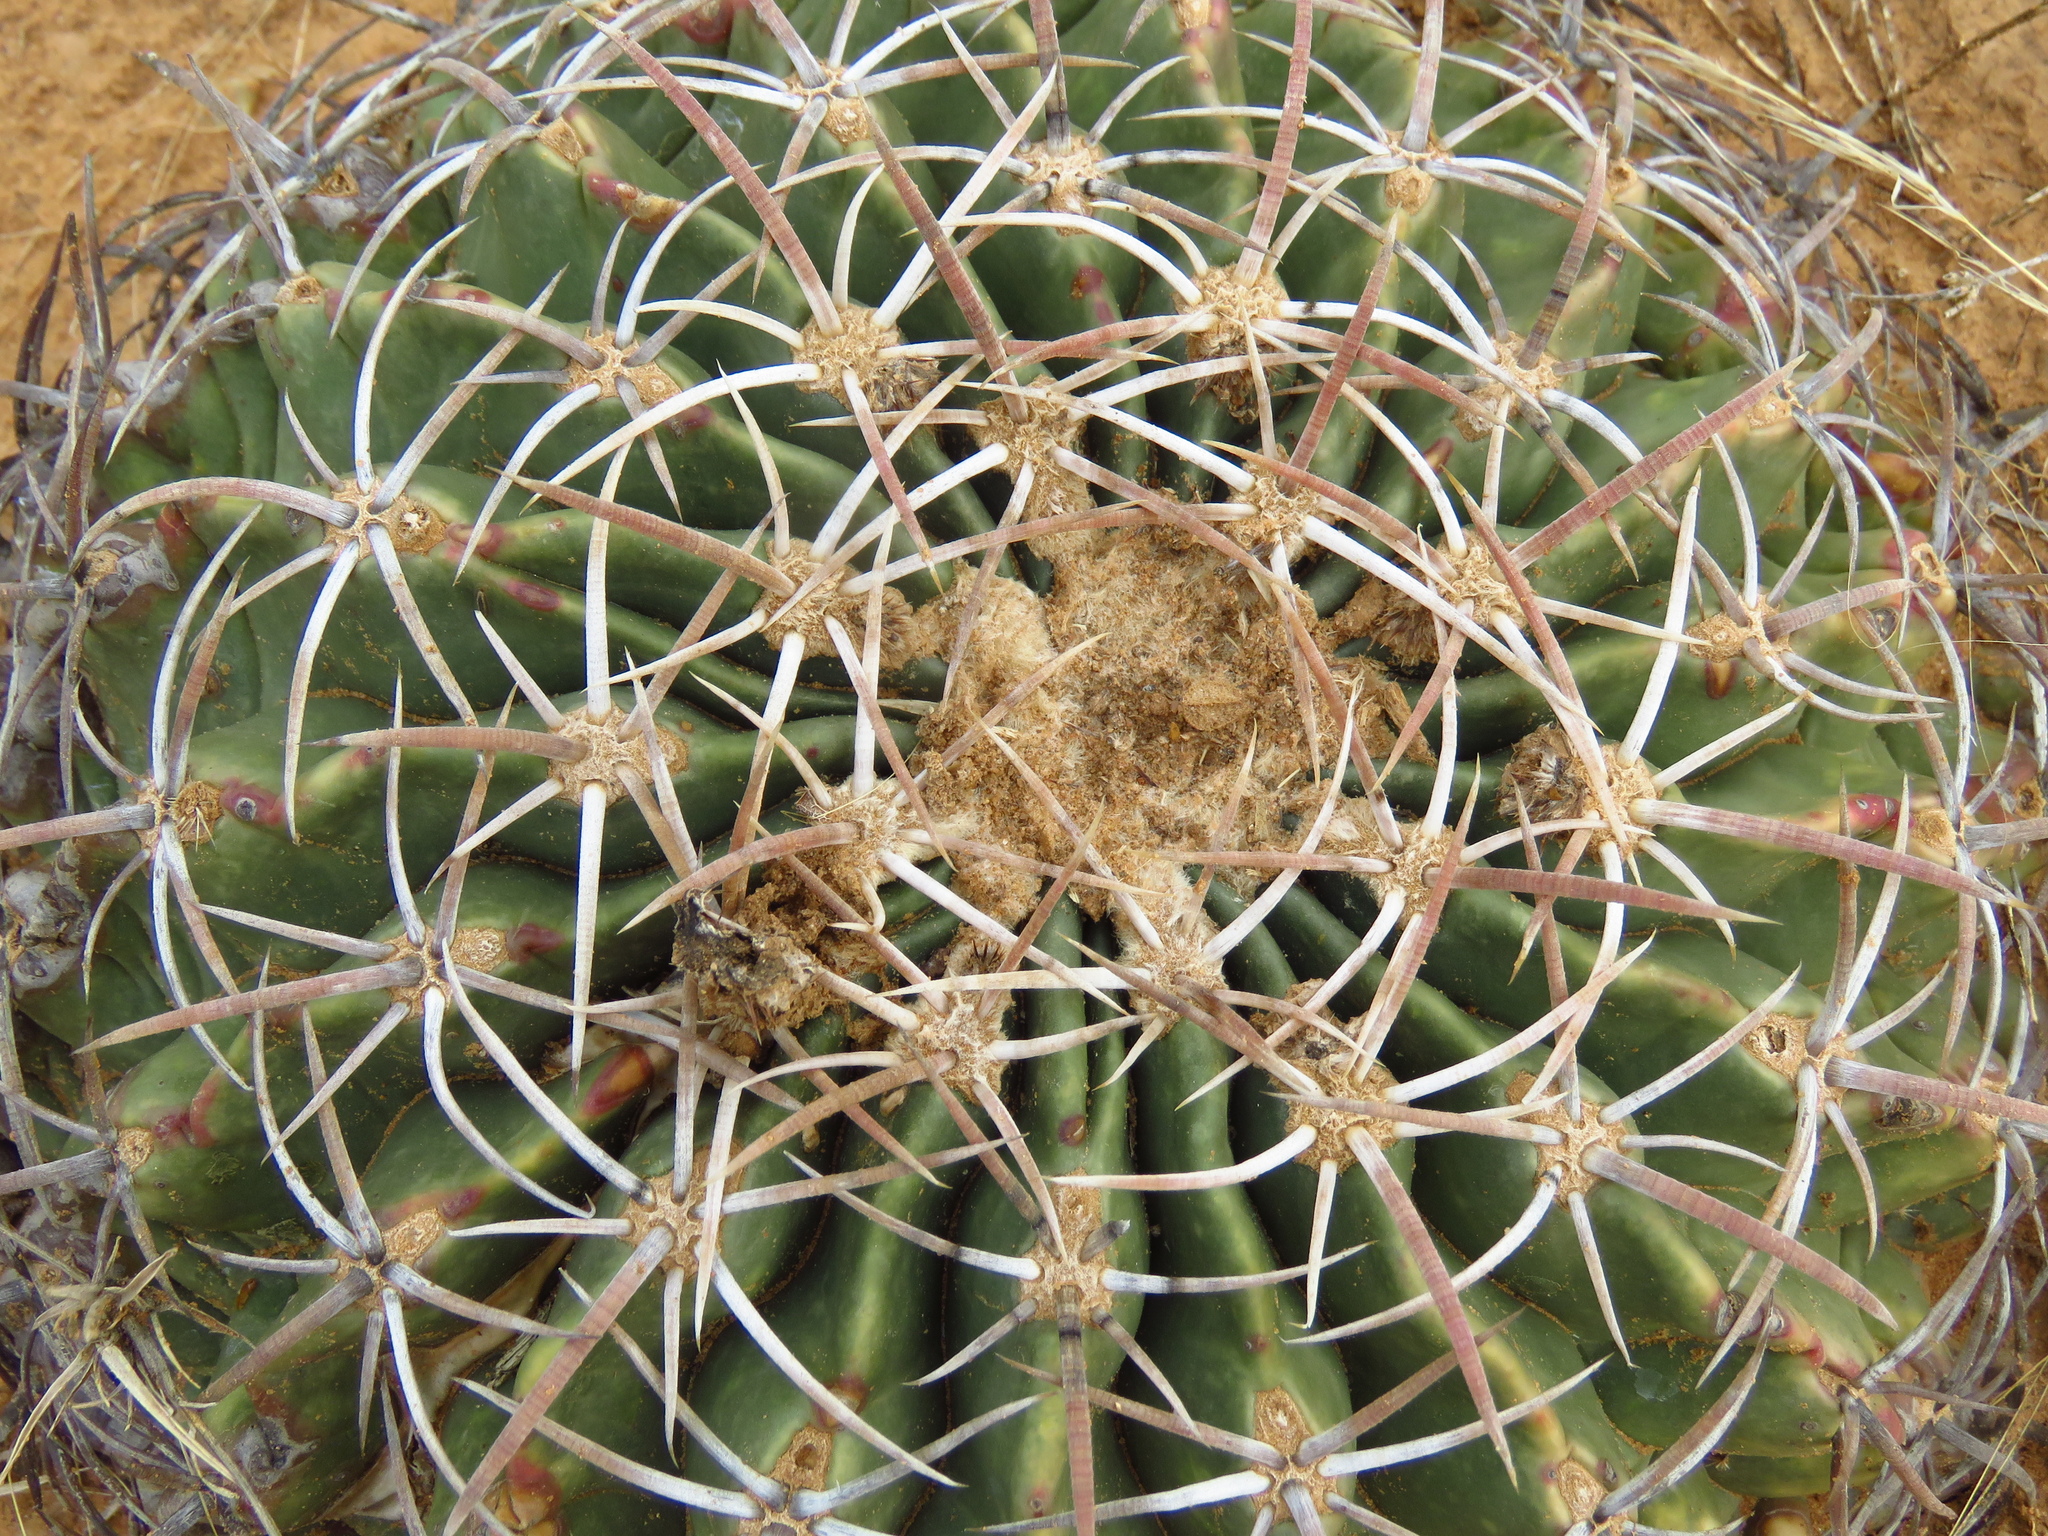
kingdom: Plantae
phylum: Tracheophyta
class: Magnoliopsida
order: Caryophyllales
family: Cactaceae
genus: Echinocactus
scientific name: Echinocactus texensis
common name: Devil's pincushion
